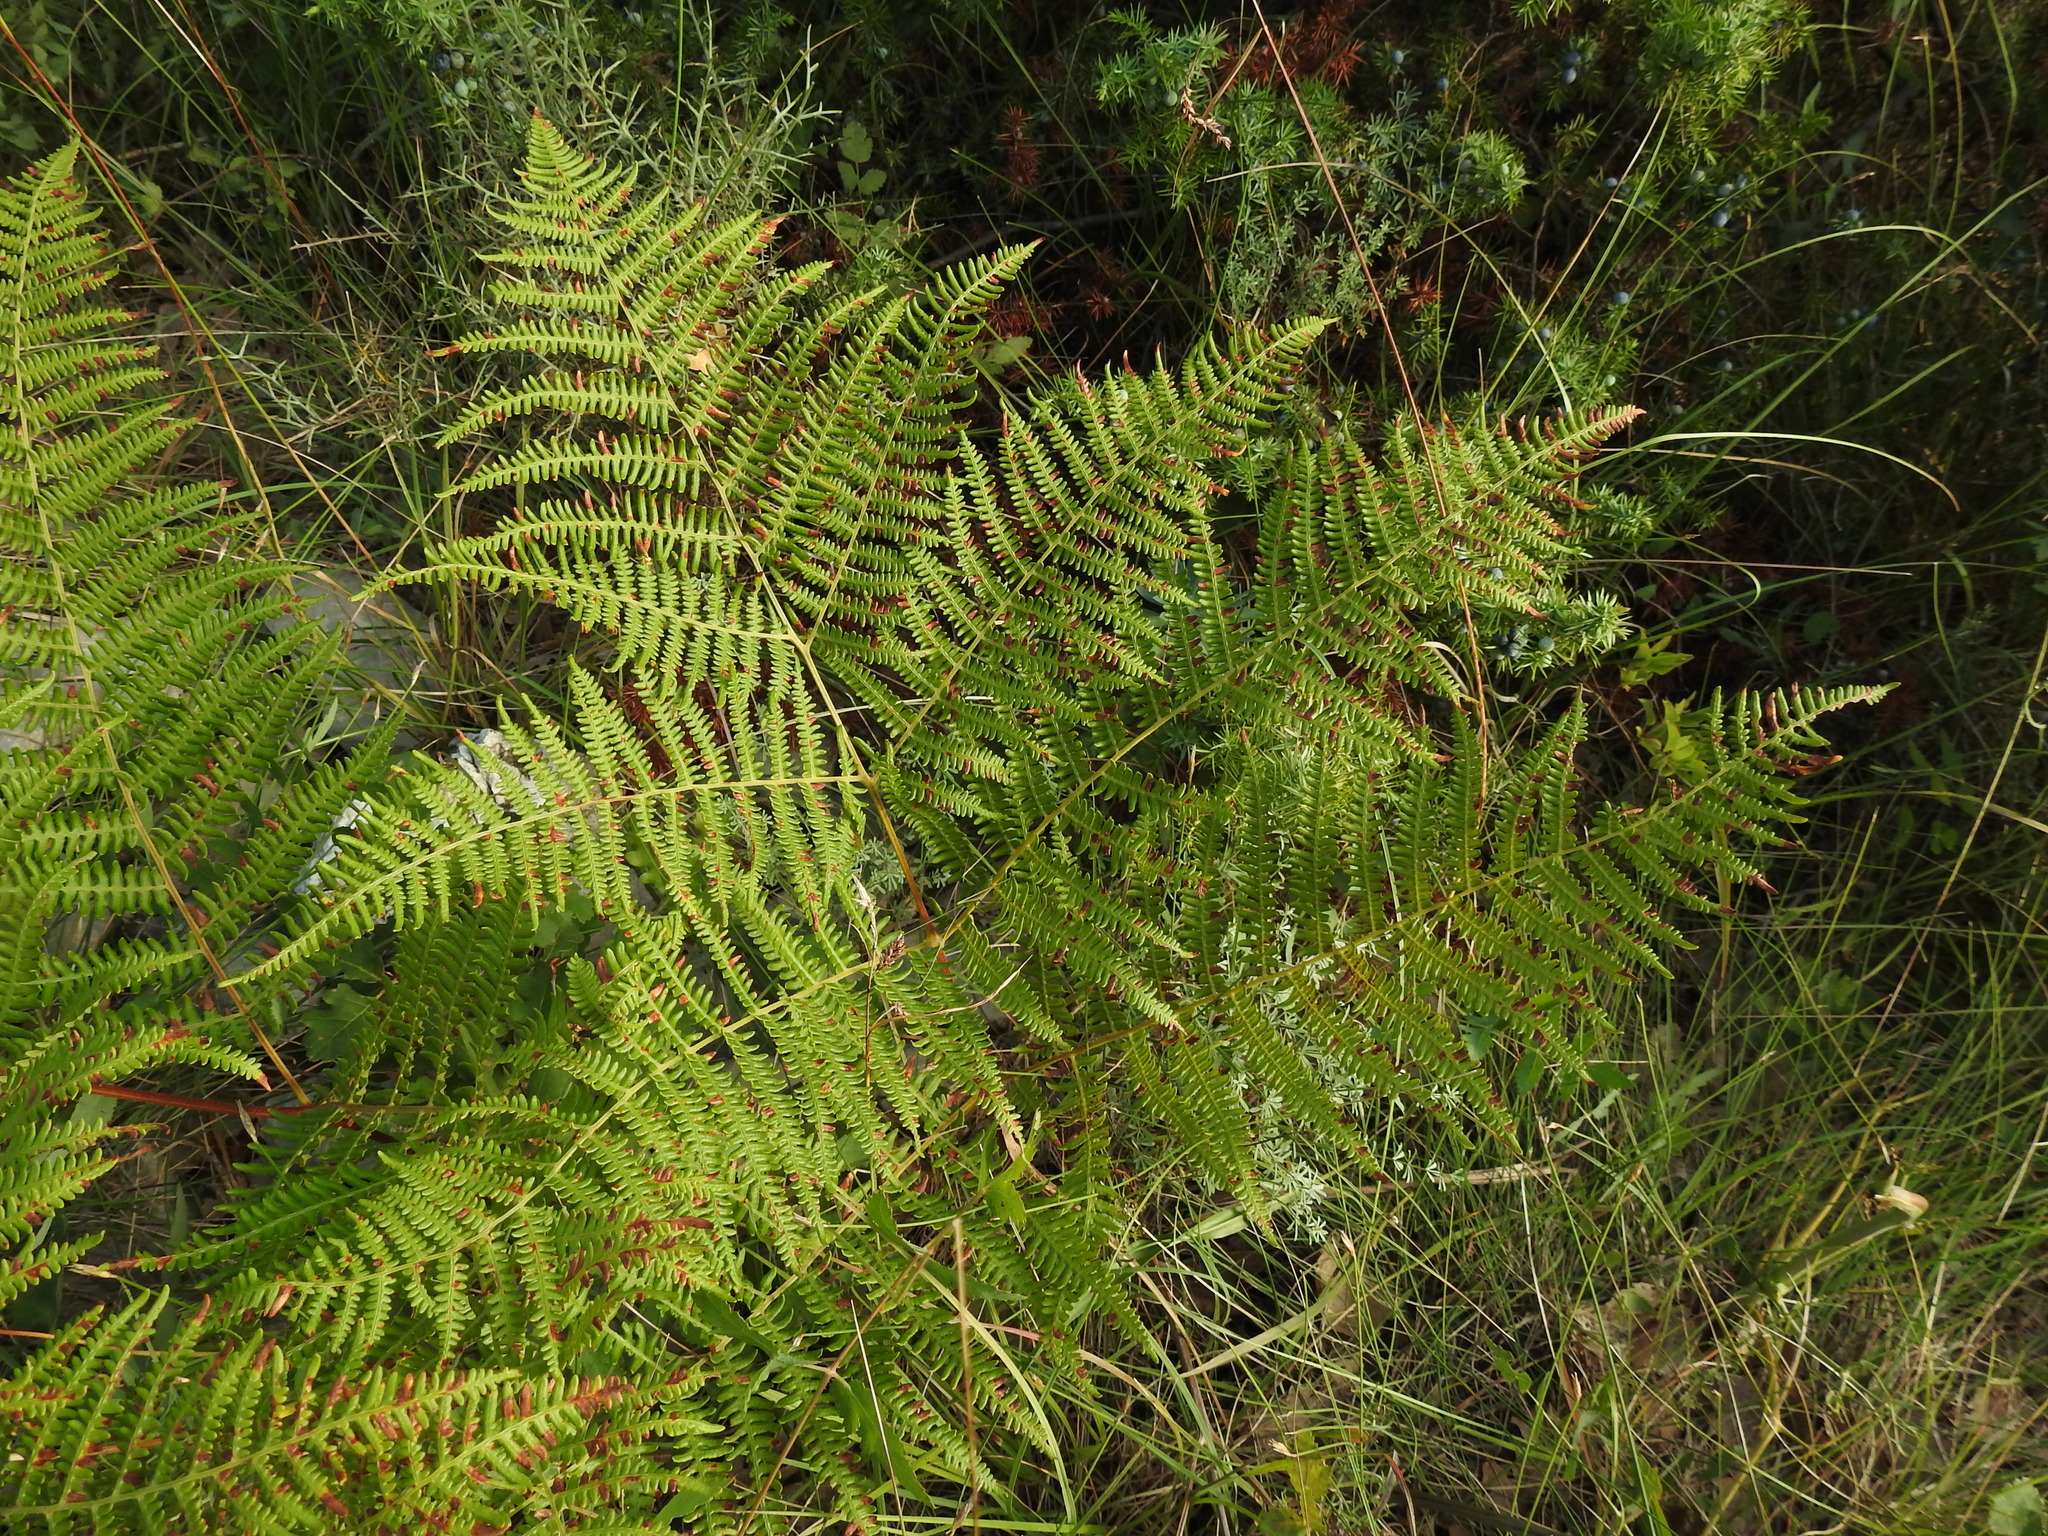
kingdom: Plantae
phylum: Tracheophyta
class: Polypodiopsida
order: Polypodiales
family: Dennstaedtiaceae
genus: Pteridium
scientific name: Pteridium aquilinum
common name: Bracken
